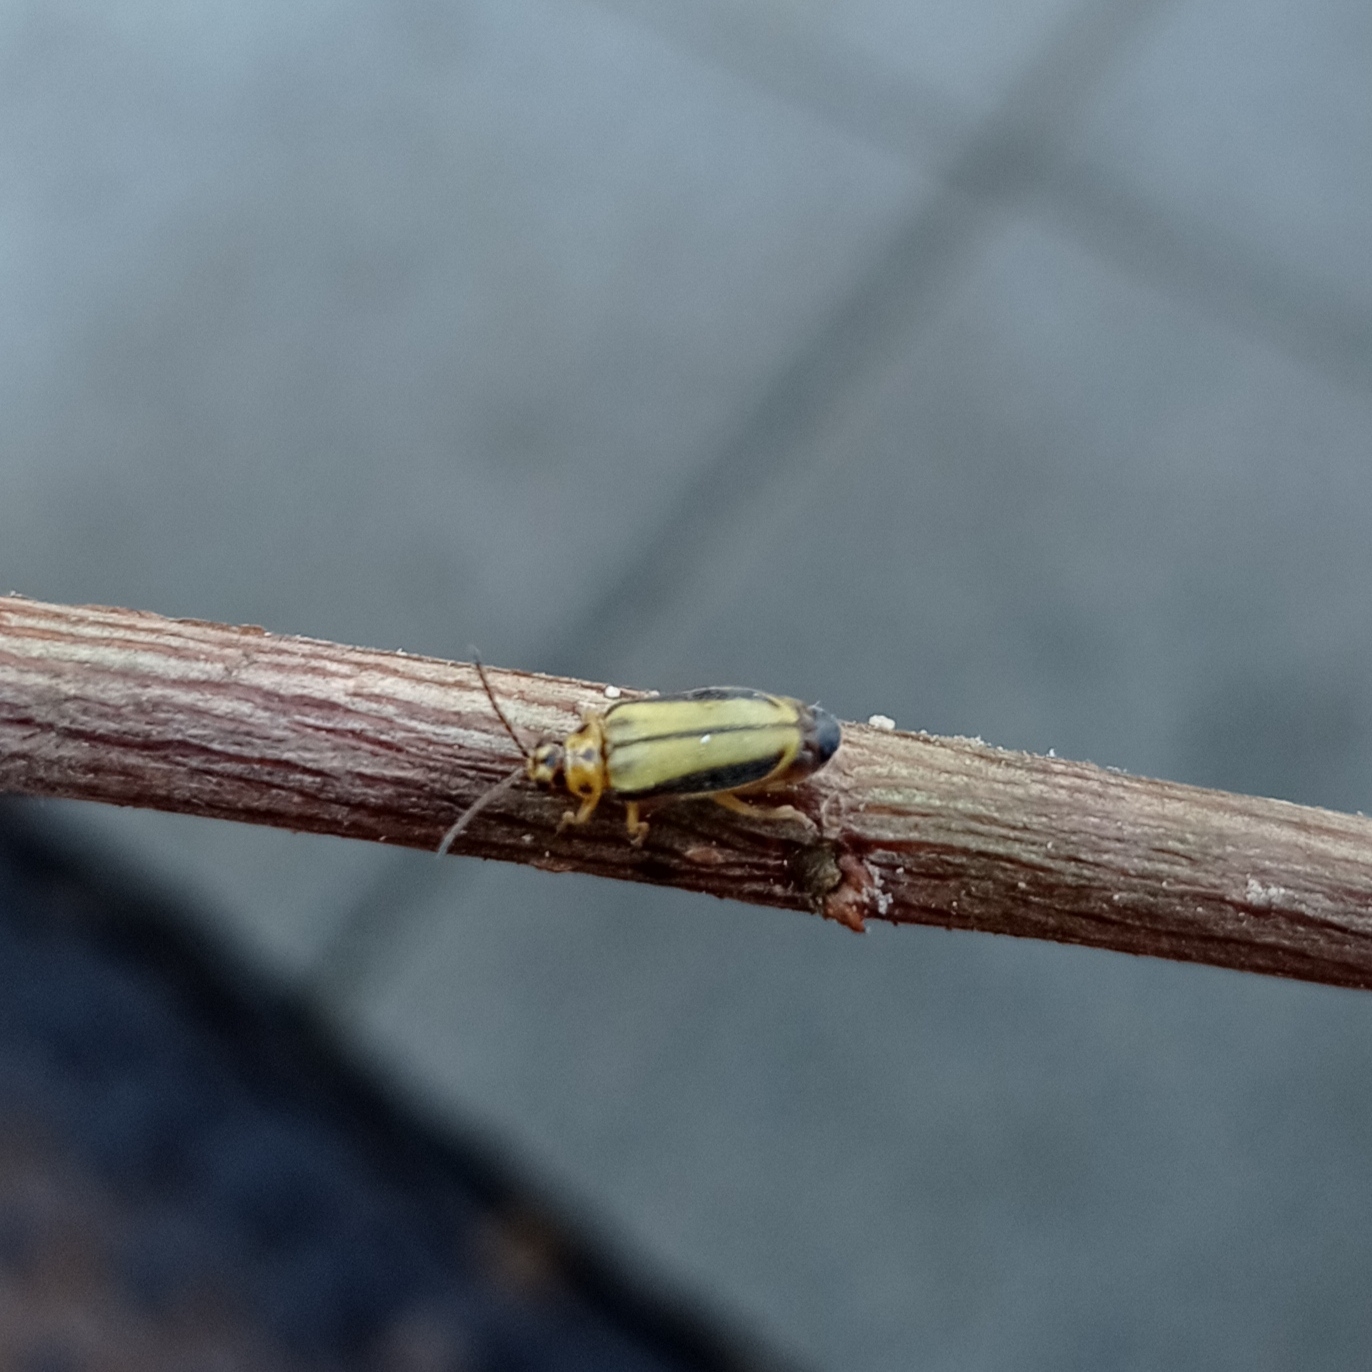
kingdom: Animalia
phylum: Arthropoda
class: Insecta
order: Coleoptera
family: Chrysomelidae
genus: Xanthogaleruca
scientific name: Xanthogaleruca luteola
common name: Elm leaf beetle
